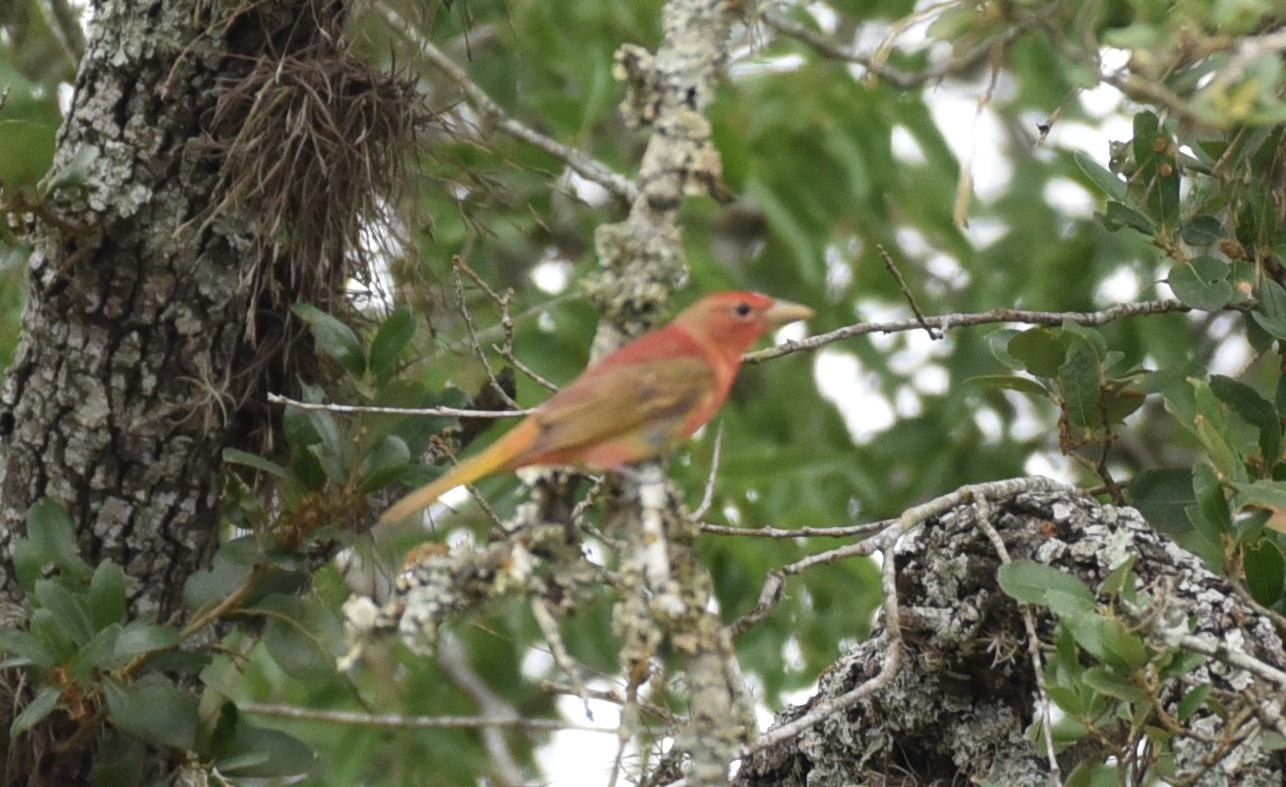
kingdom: Animalia
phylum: Chordata
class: Aves
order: Passeriformes
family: Cardinalidae
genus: Piranga
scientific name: Piranga rubra
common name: Summer tanager
